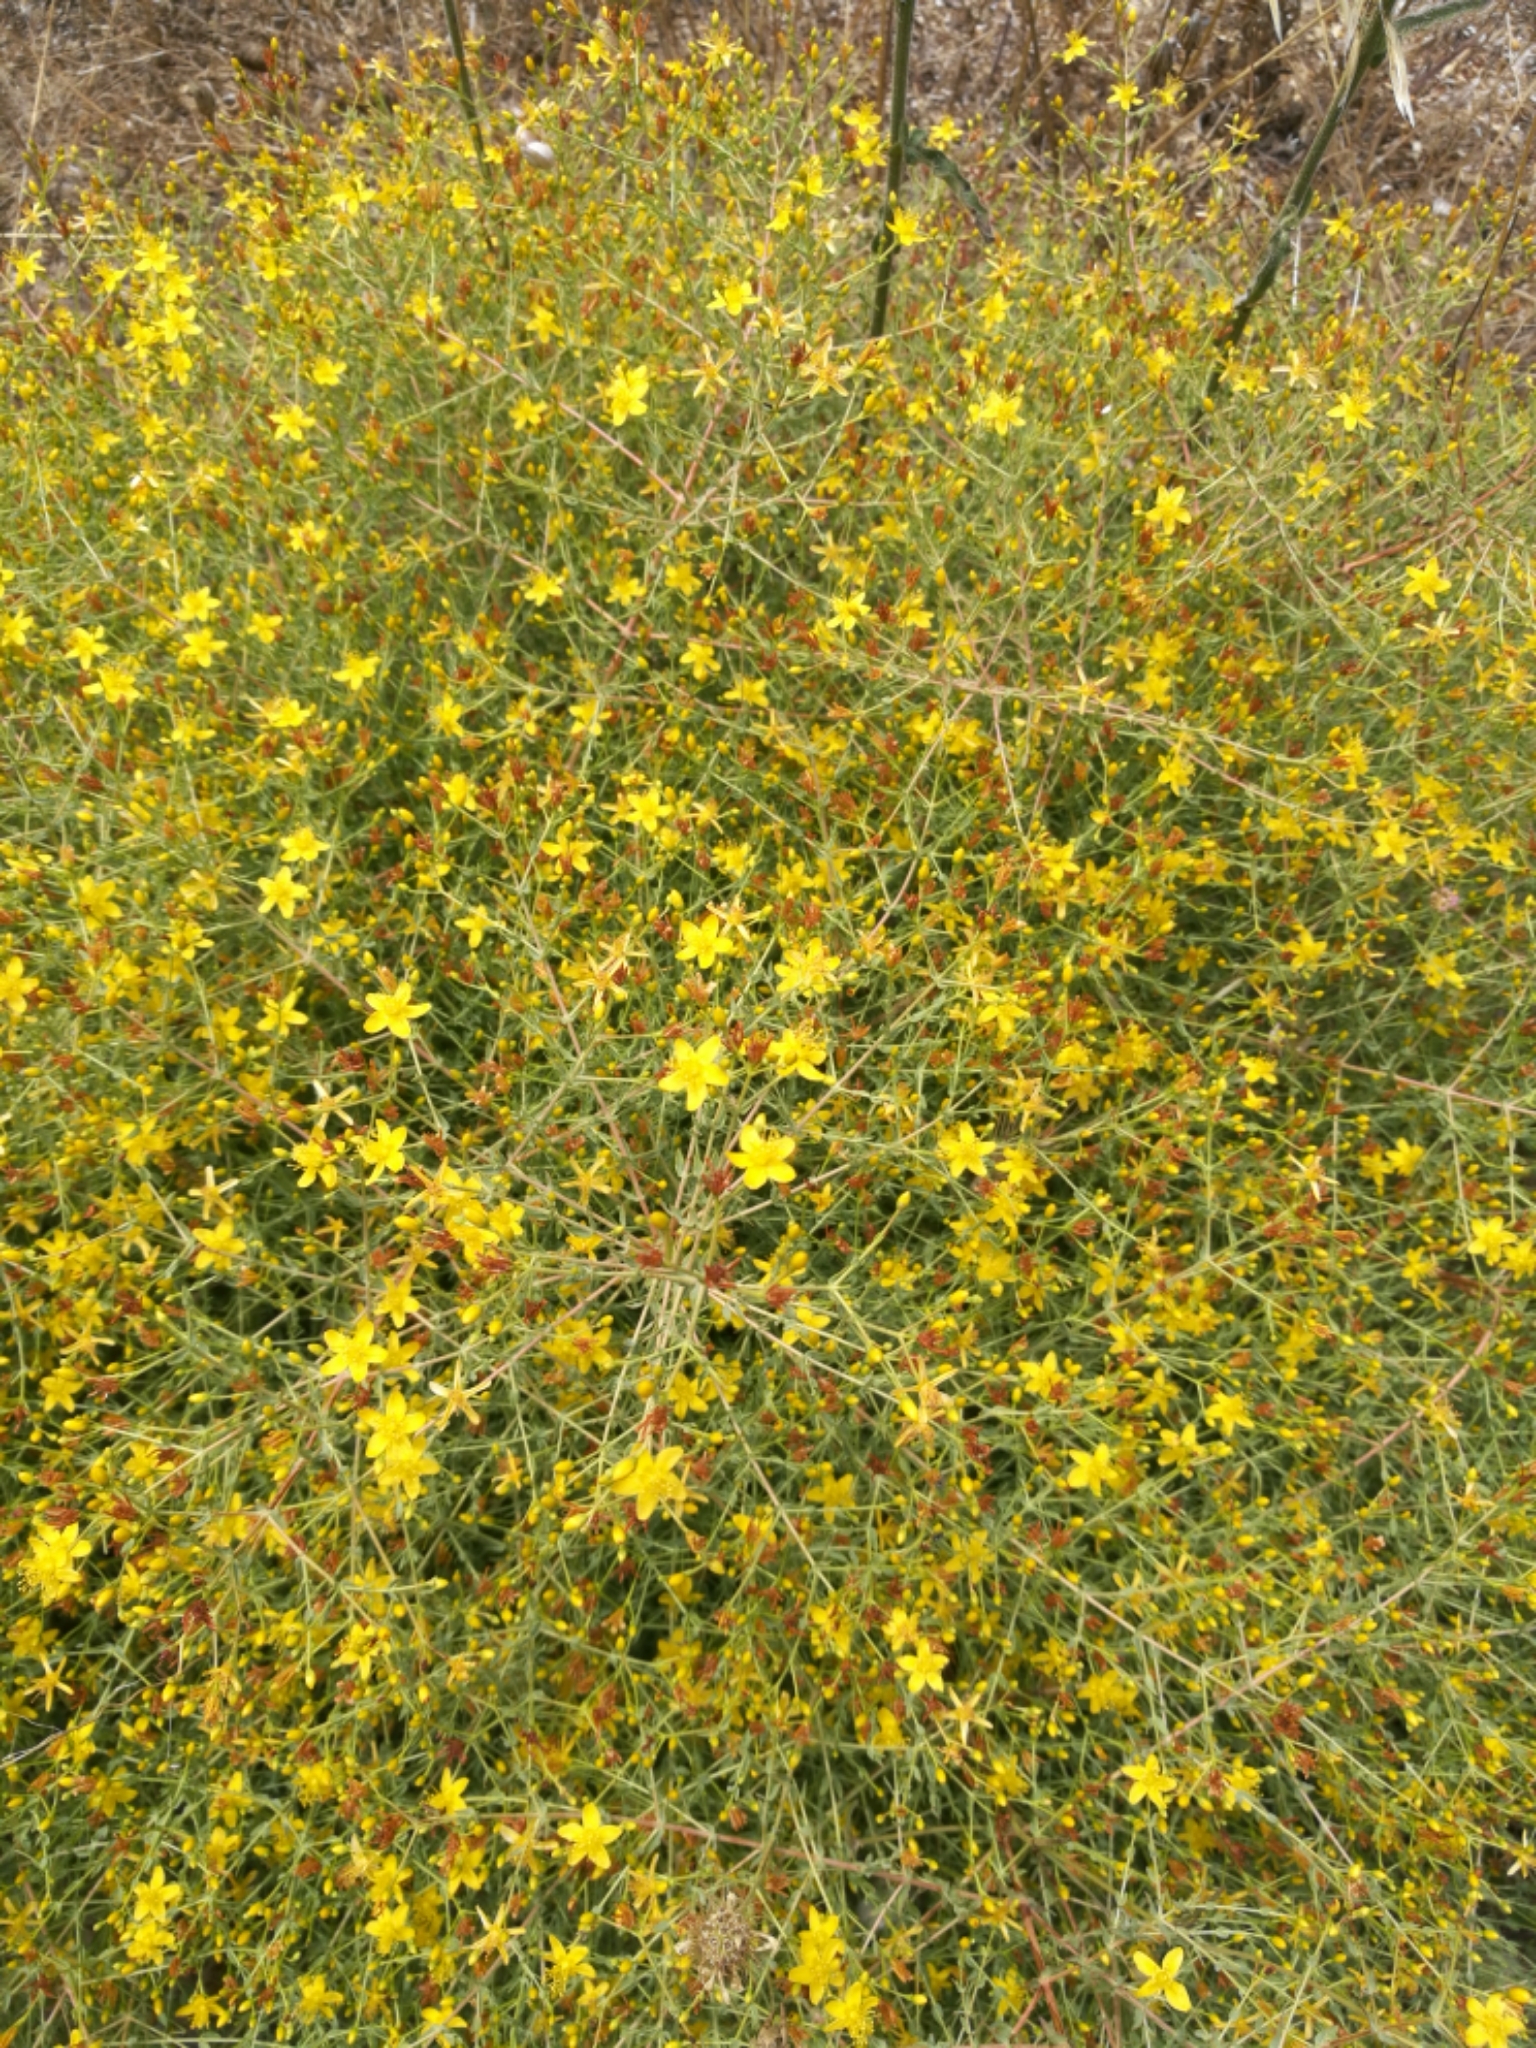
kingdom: Plantae
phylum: Tracheophyta
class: Magnoliopsida
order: Malpighiales
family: Hypericaceae
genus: Hypericum
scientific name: Hypericum triquetrifolium
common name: Tangled hypericum
